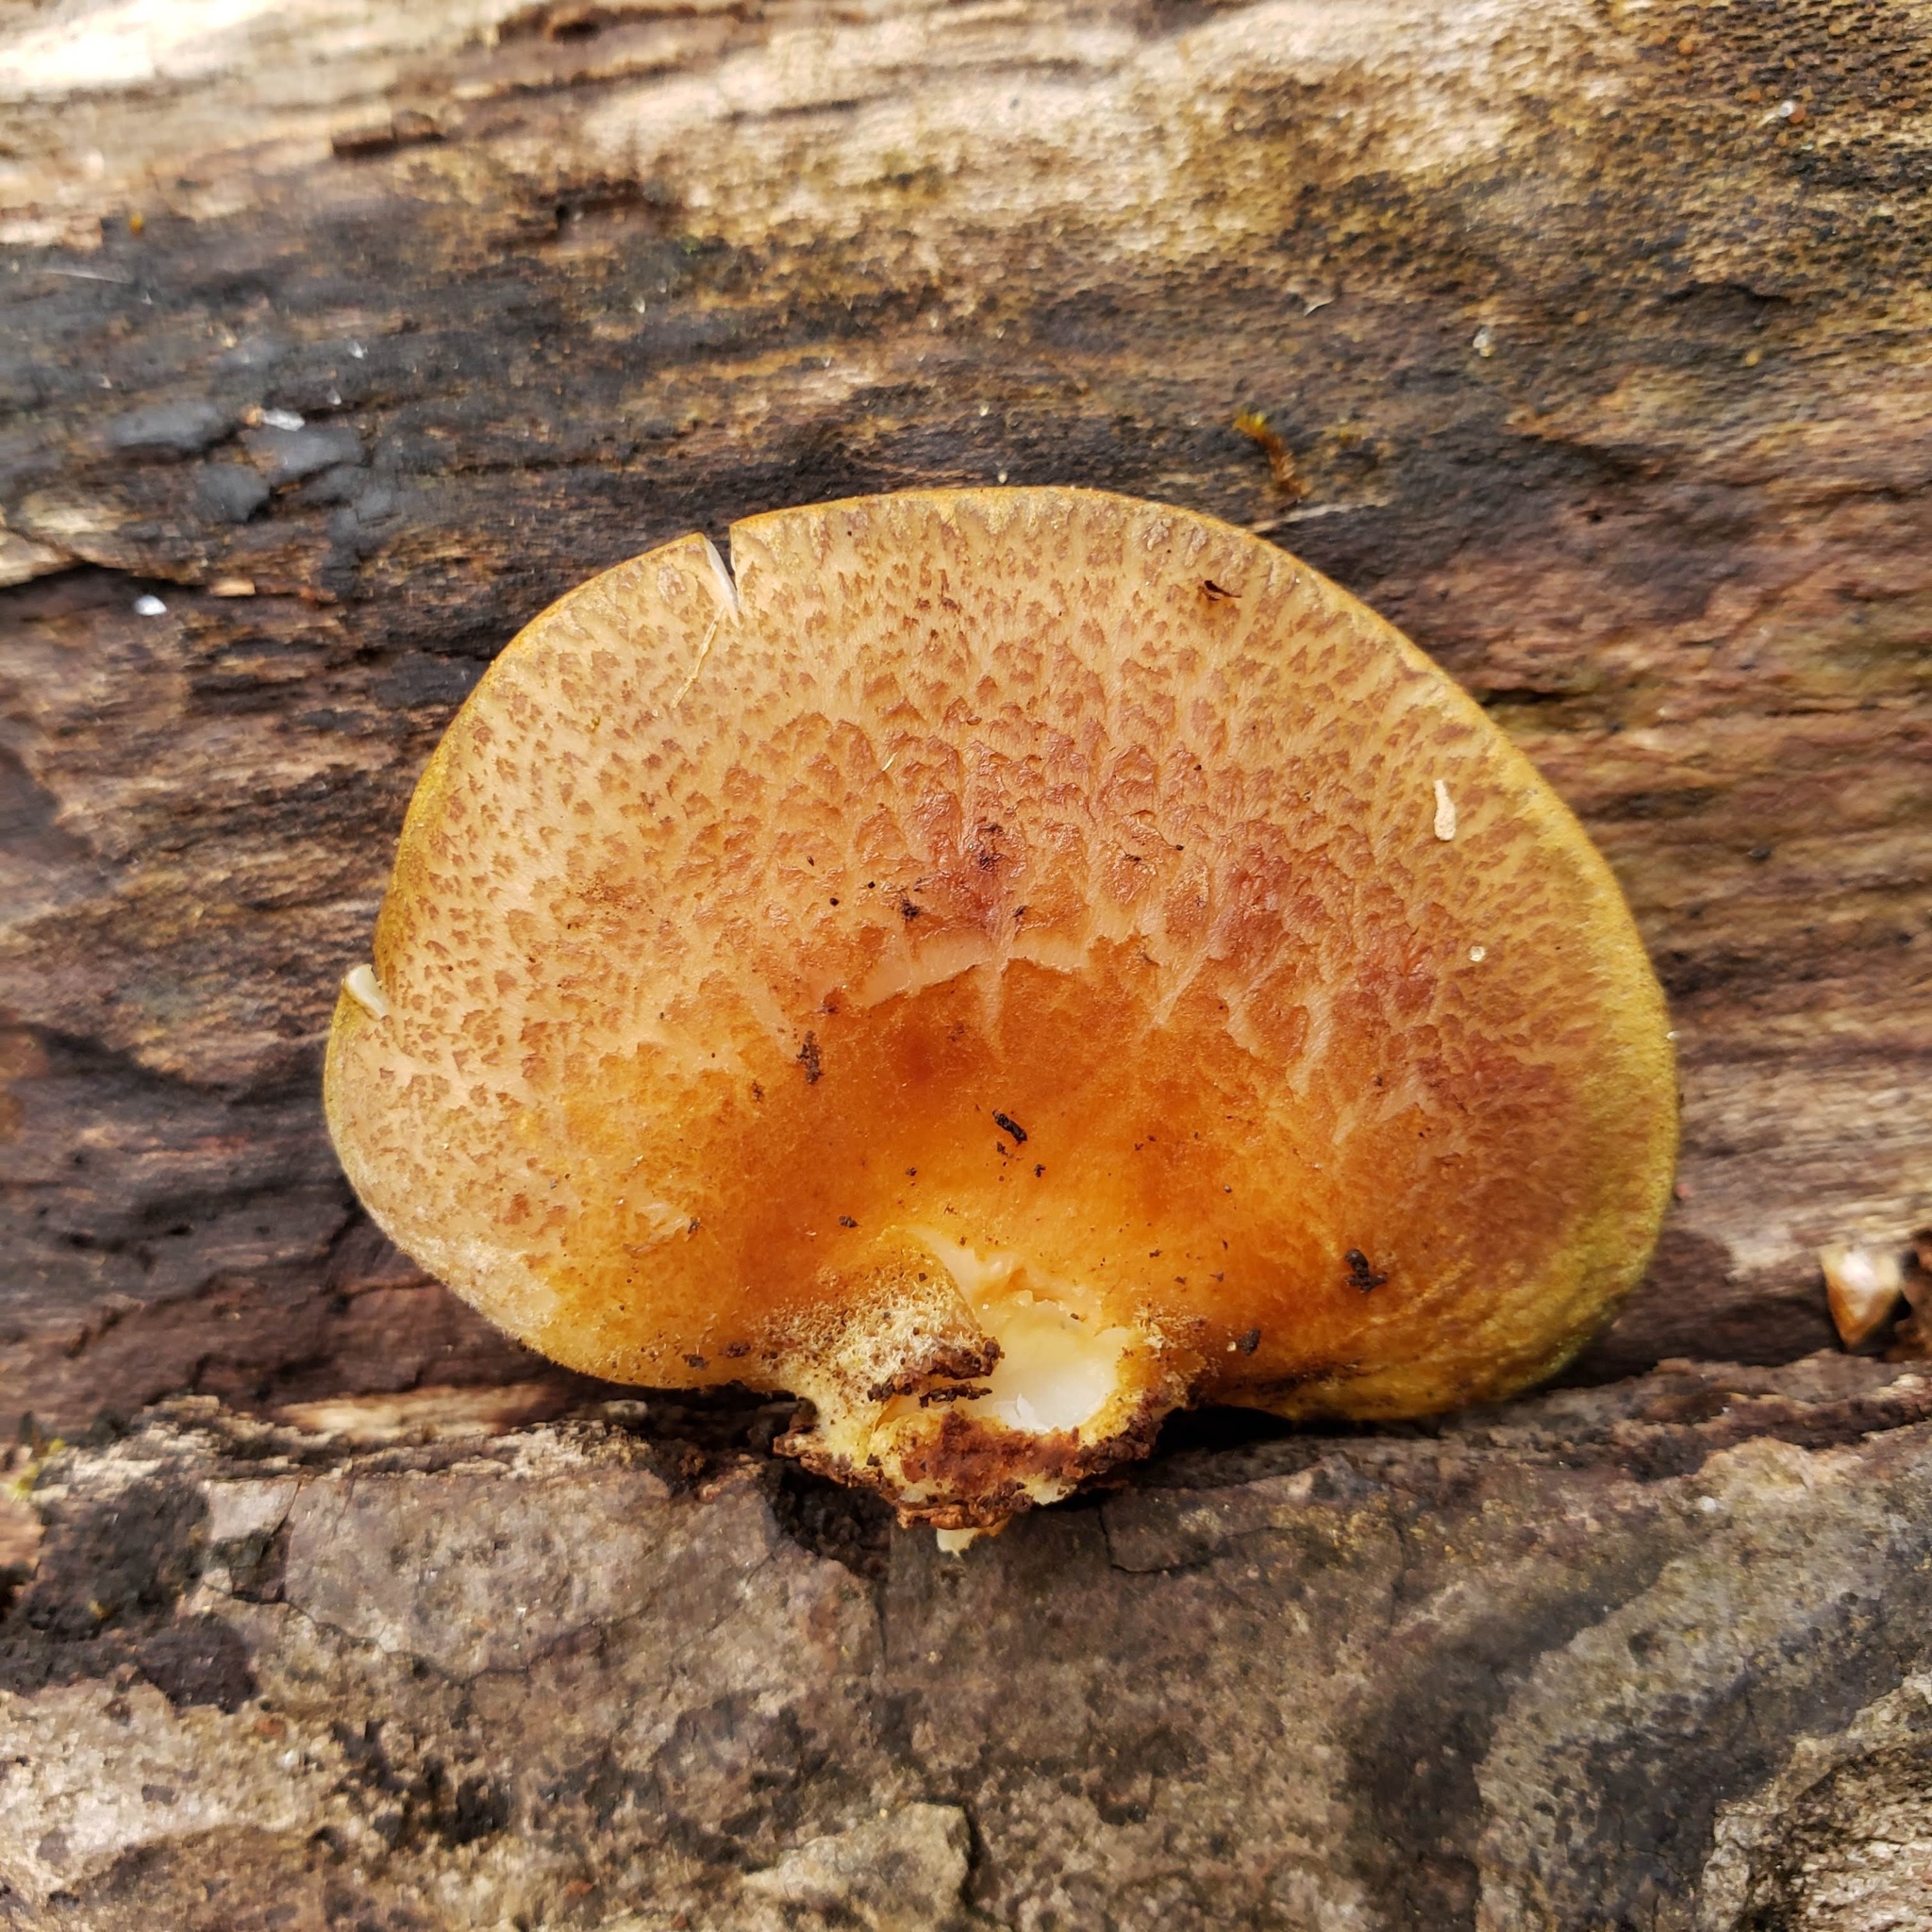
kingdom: Fungi
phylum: Basidiomycota
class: Agaricomycetes
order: Agaricales
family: Sarcomyxaceae
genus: Sarcomyxa
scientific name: Sarcomyxa serotina
